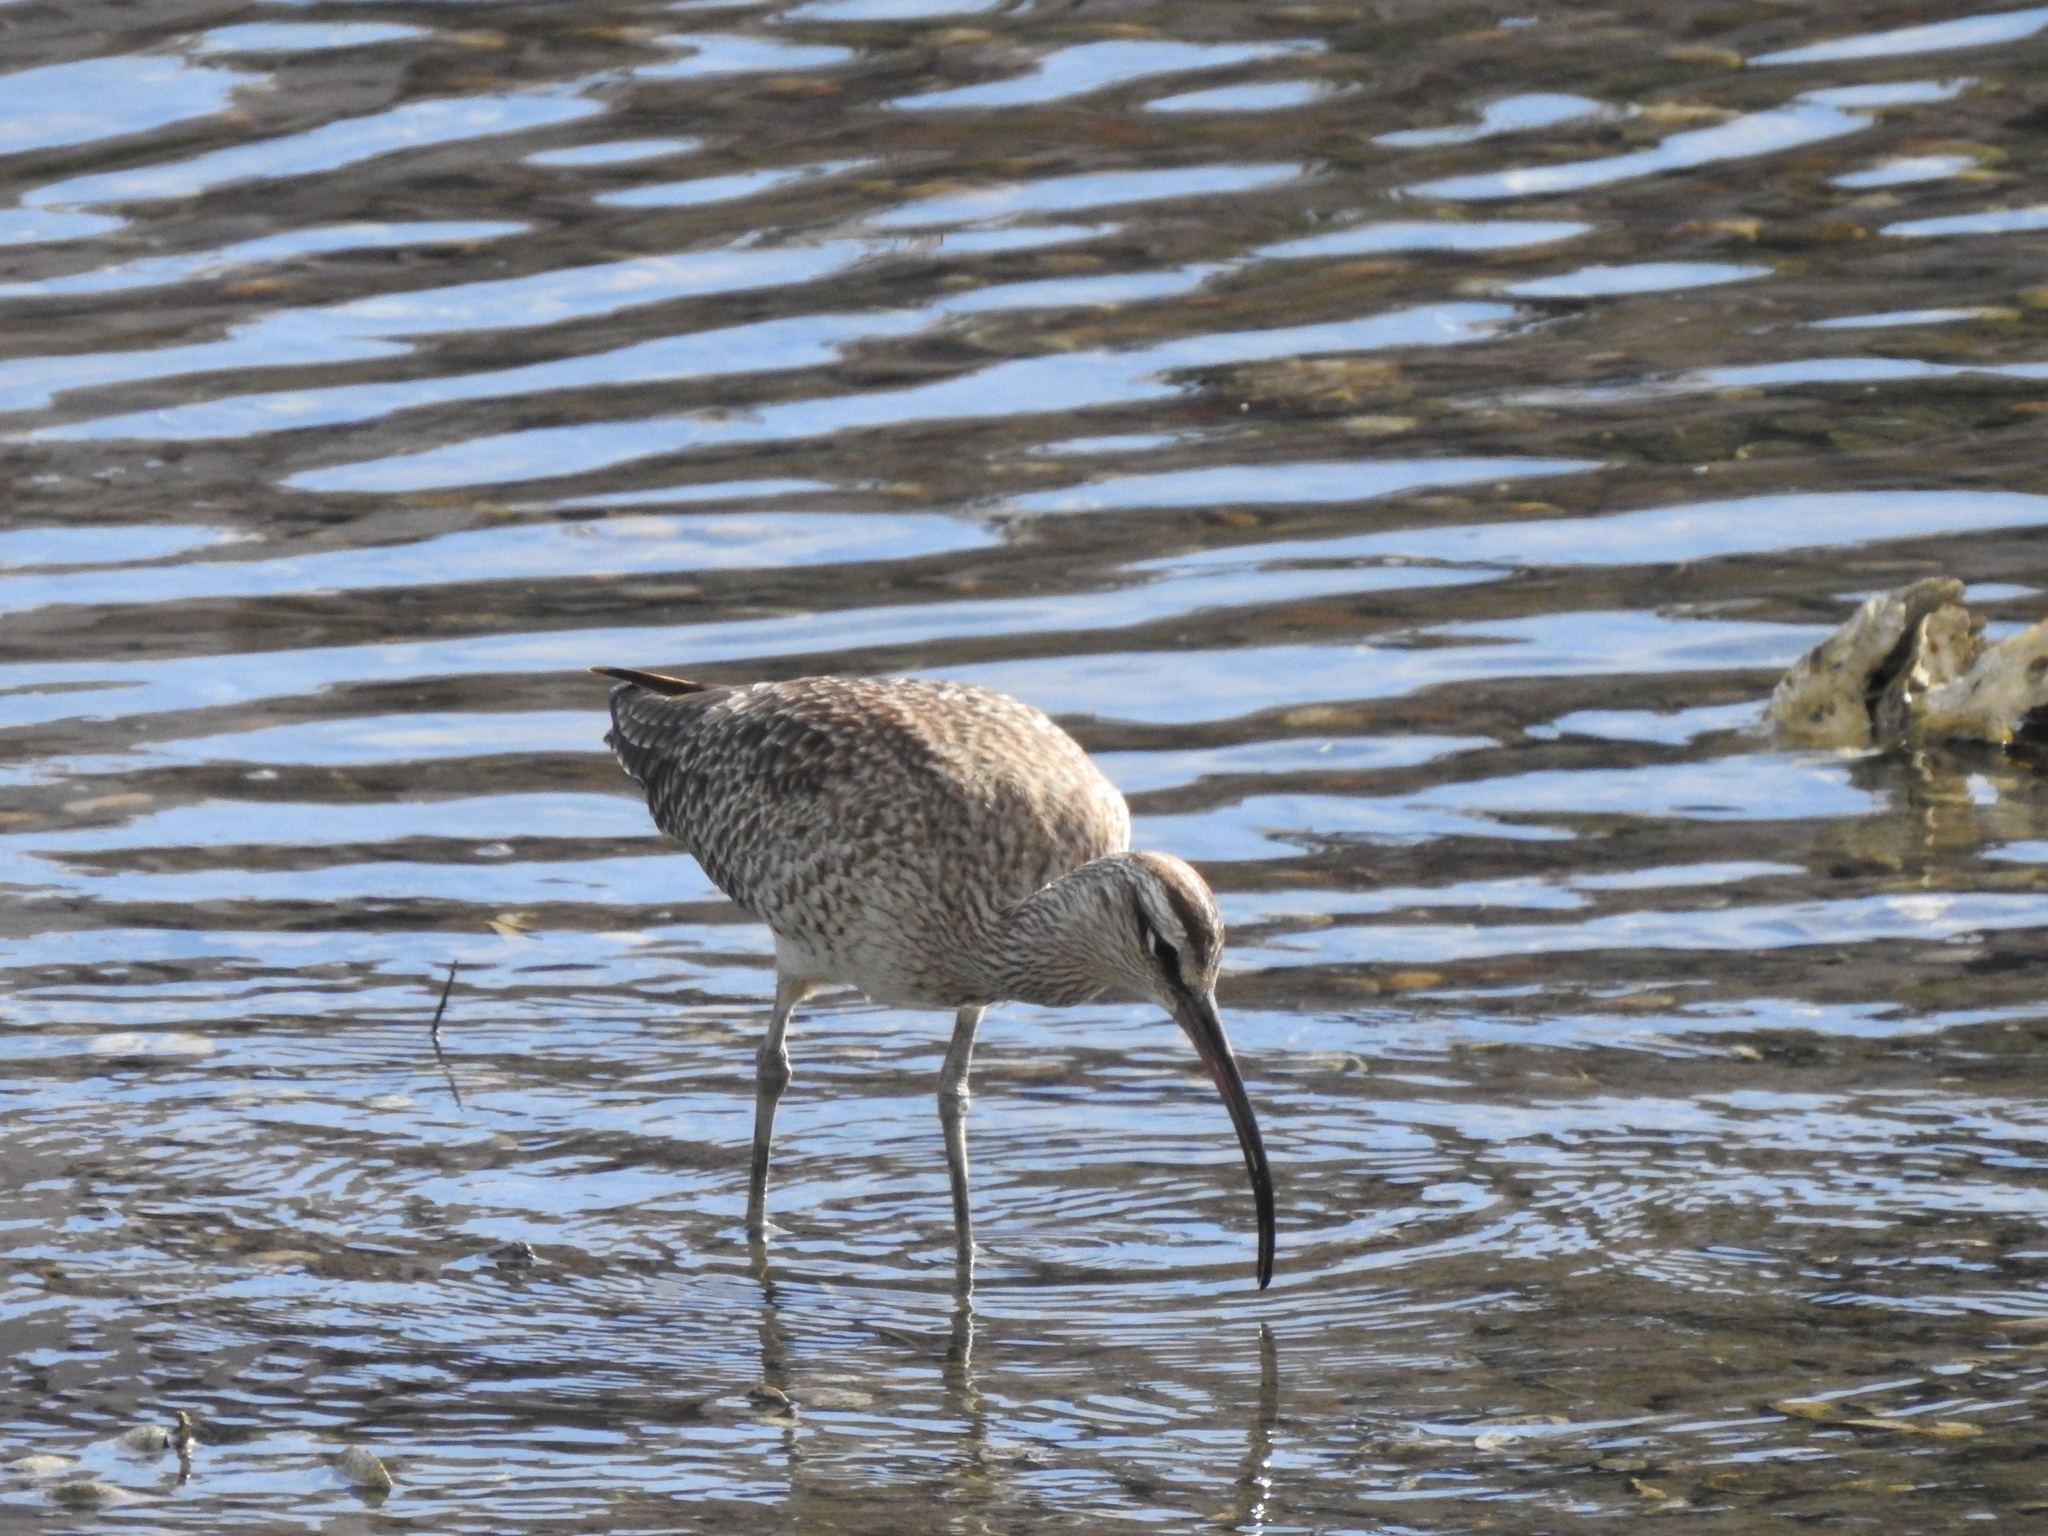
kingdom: Animalia
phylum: Chordata
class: Aves
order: Charadriiformes
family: Scolopacidae
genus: Numenius
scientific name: Numenius phaeopus
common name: Whimbrel
